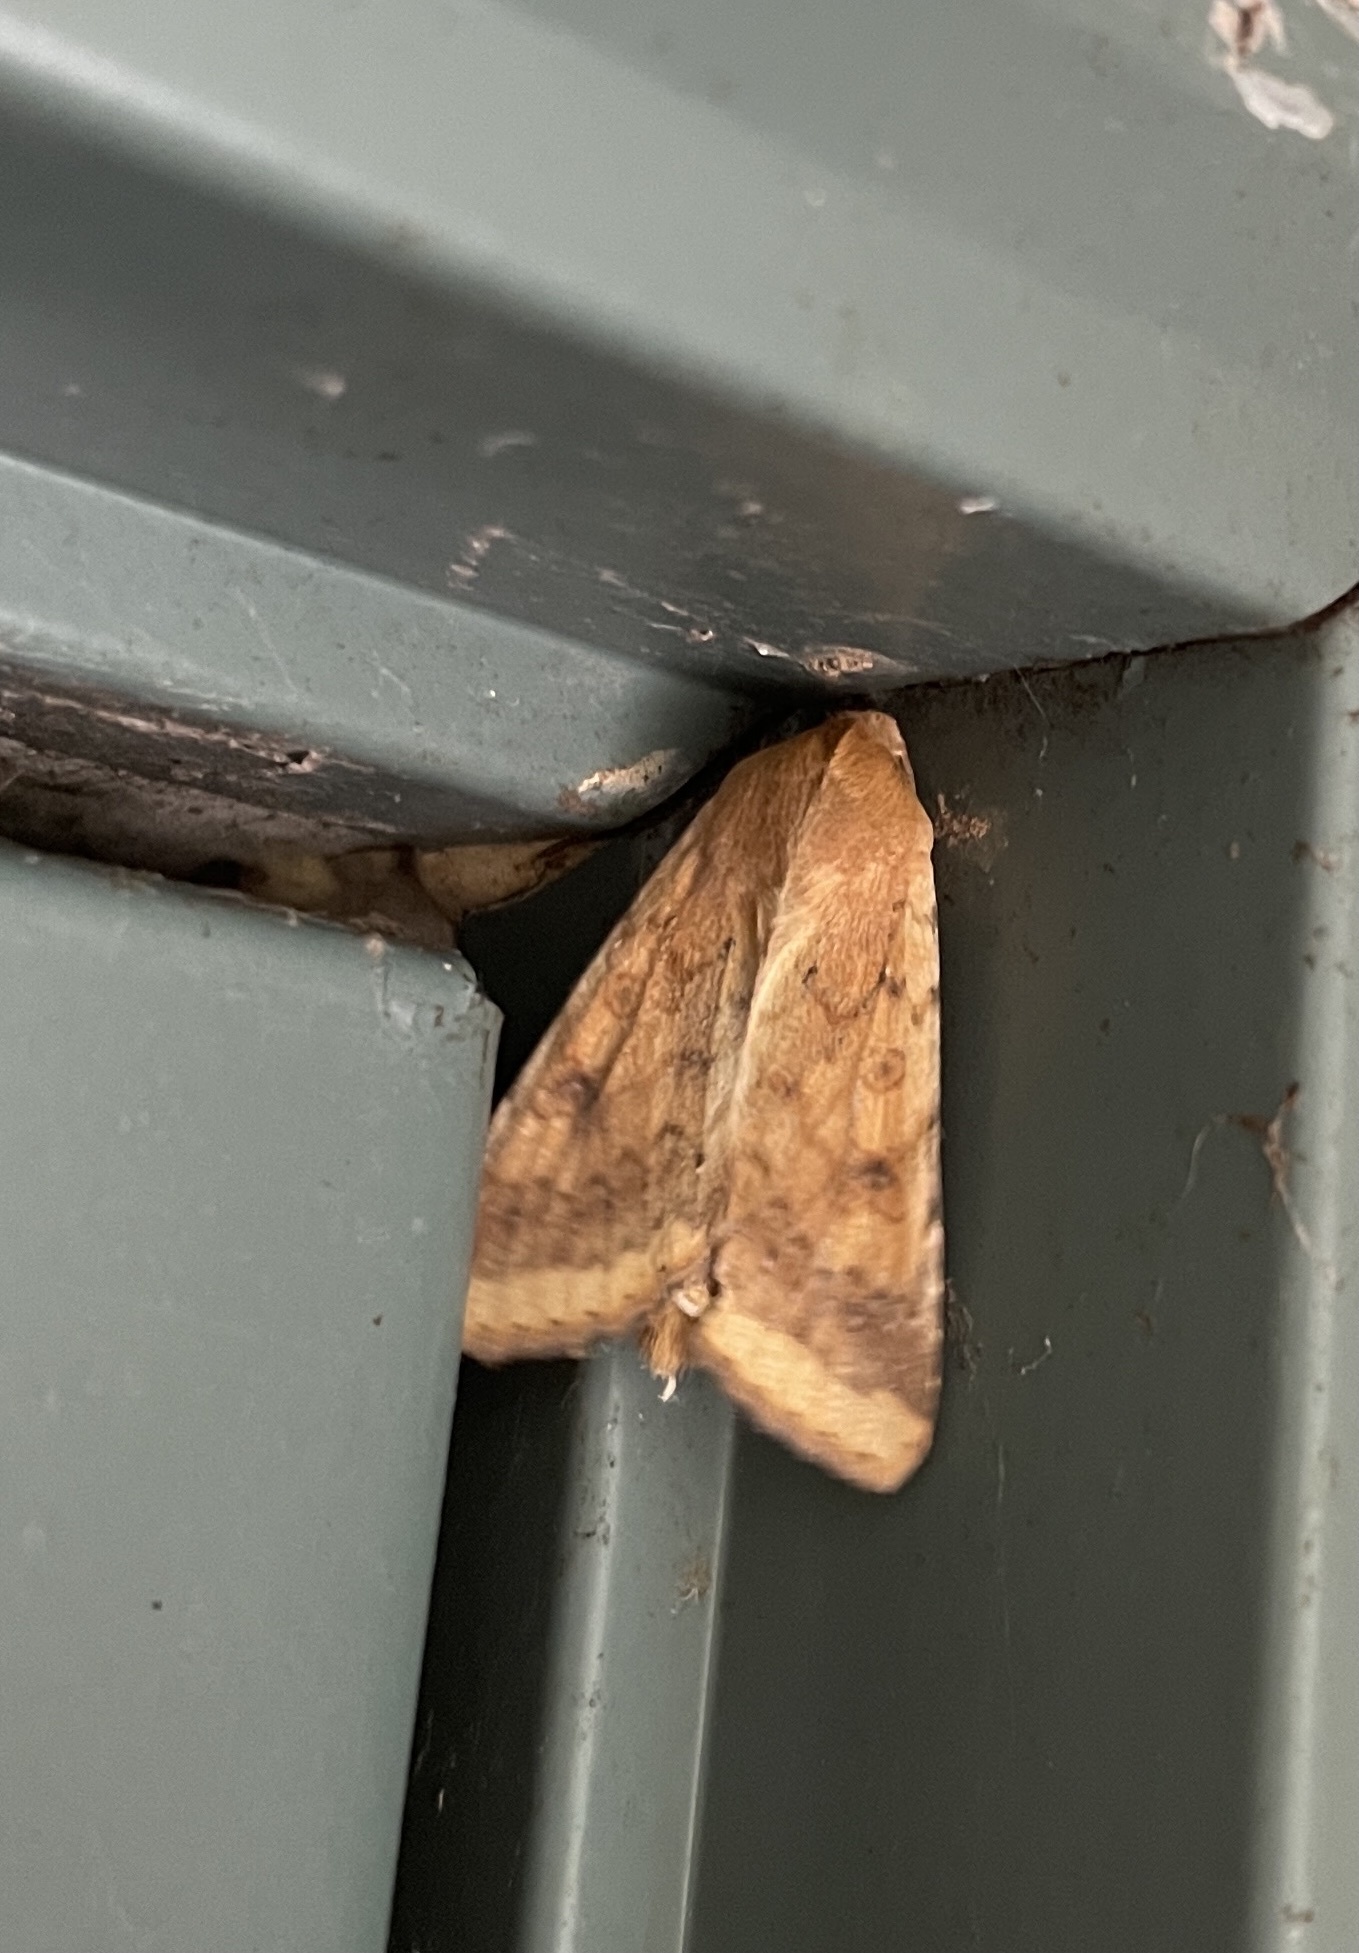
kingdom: Animalia
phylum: Arthropoda
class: Insecta
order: Lepidoptera
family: Noctuidae
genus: Helicoverpa
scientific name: Helicoverpa zea
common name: Bollworm
